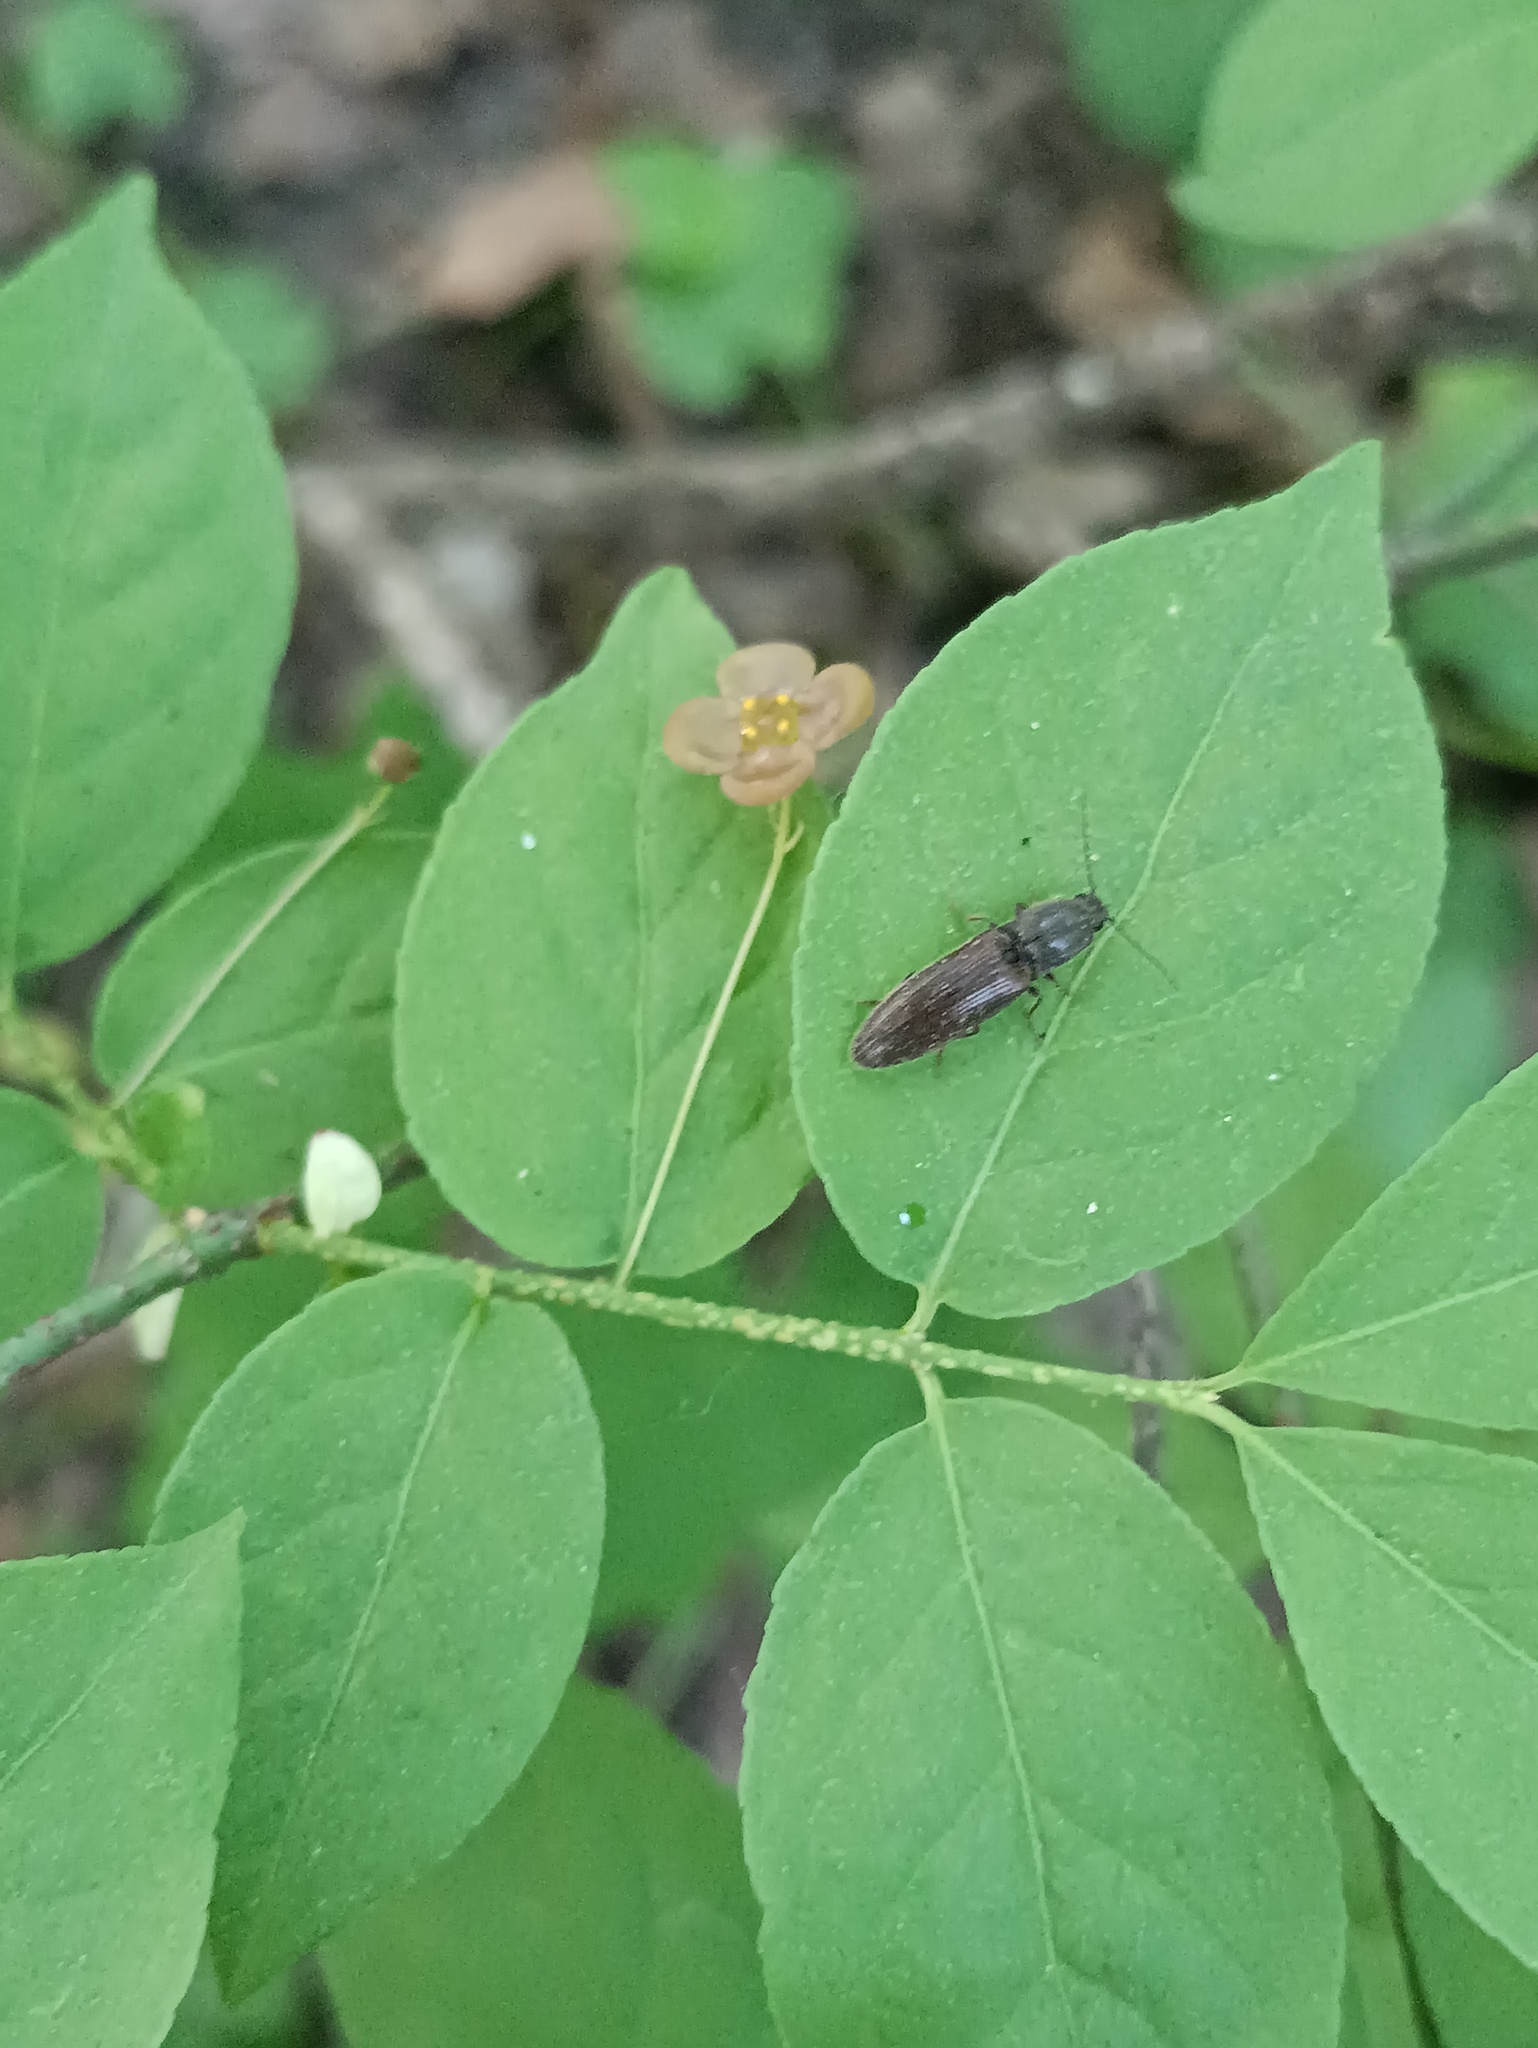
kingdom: Animalia
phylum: Arthropoda
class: Insecta
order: Coleoptera
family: Elateridae
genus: Athous
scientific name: Athous haemorrhoidalis
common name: Red-brown click beetle
